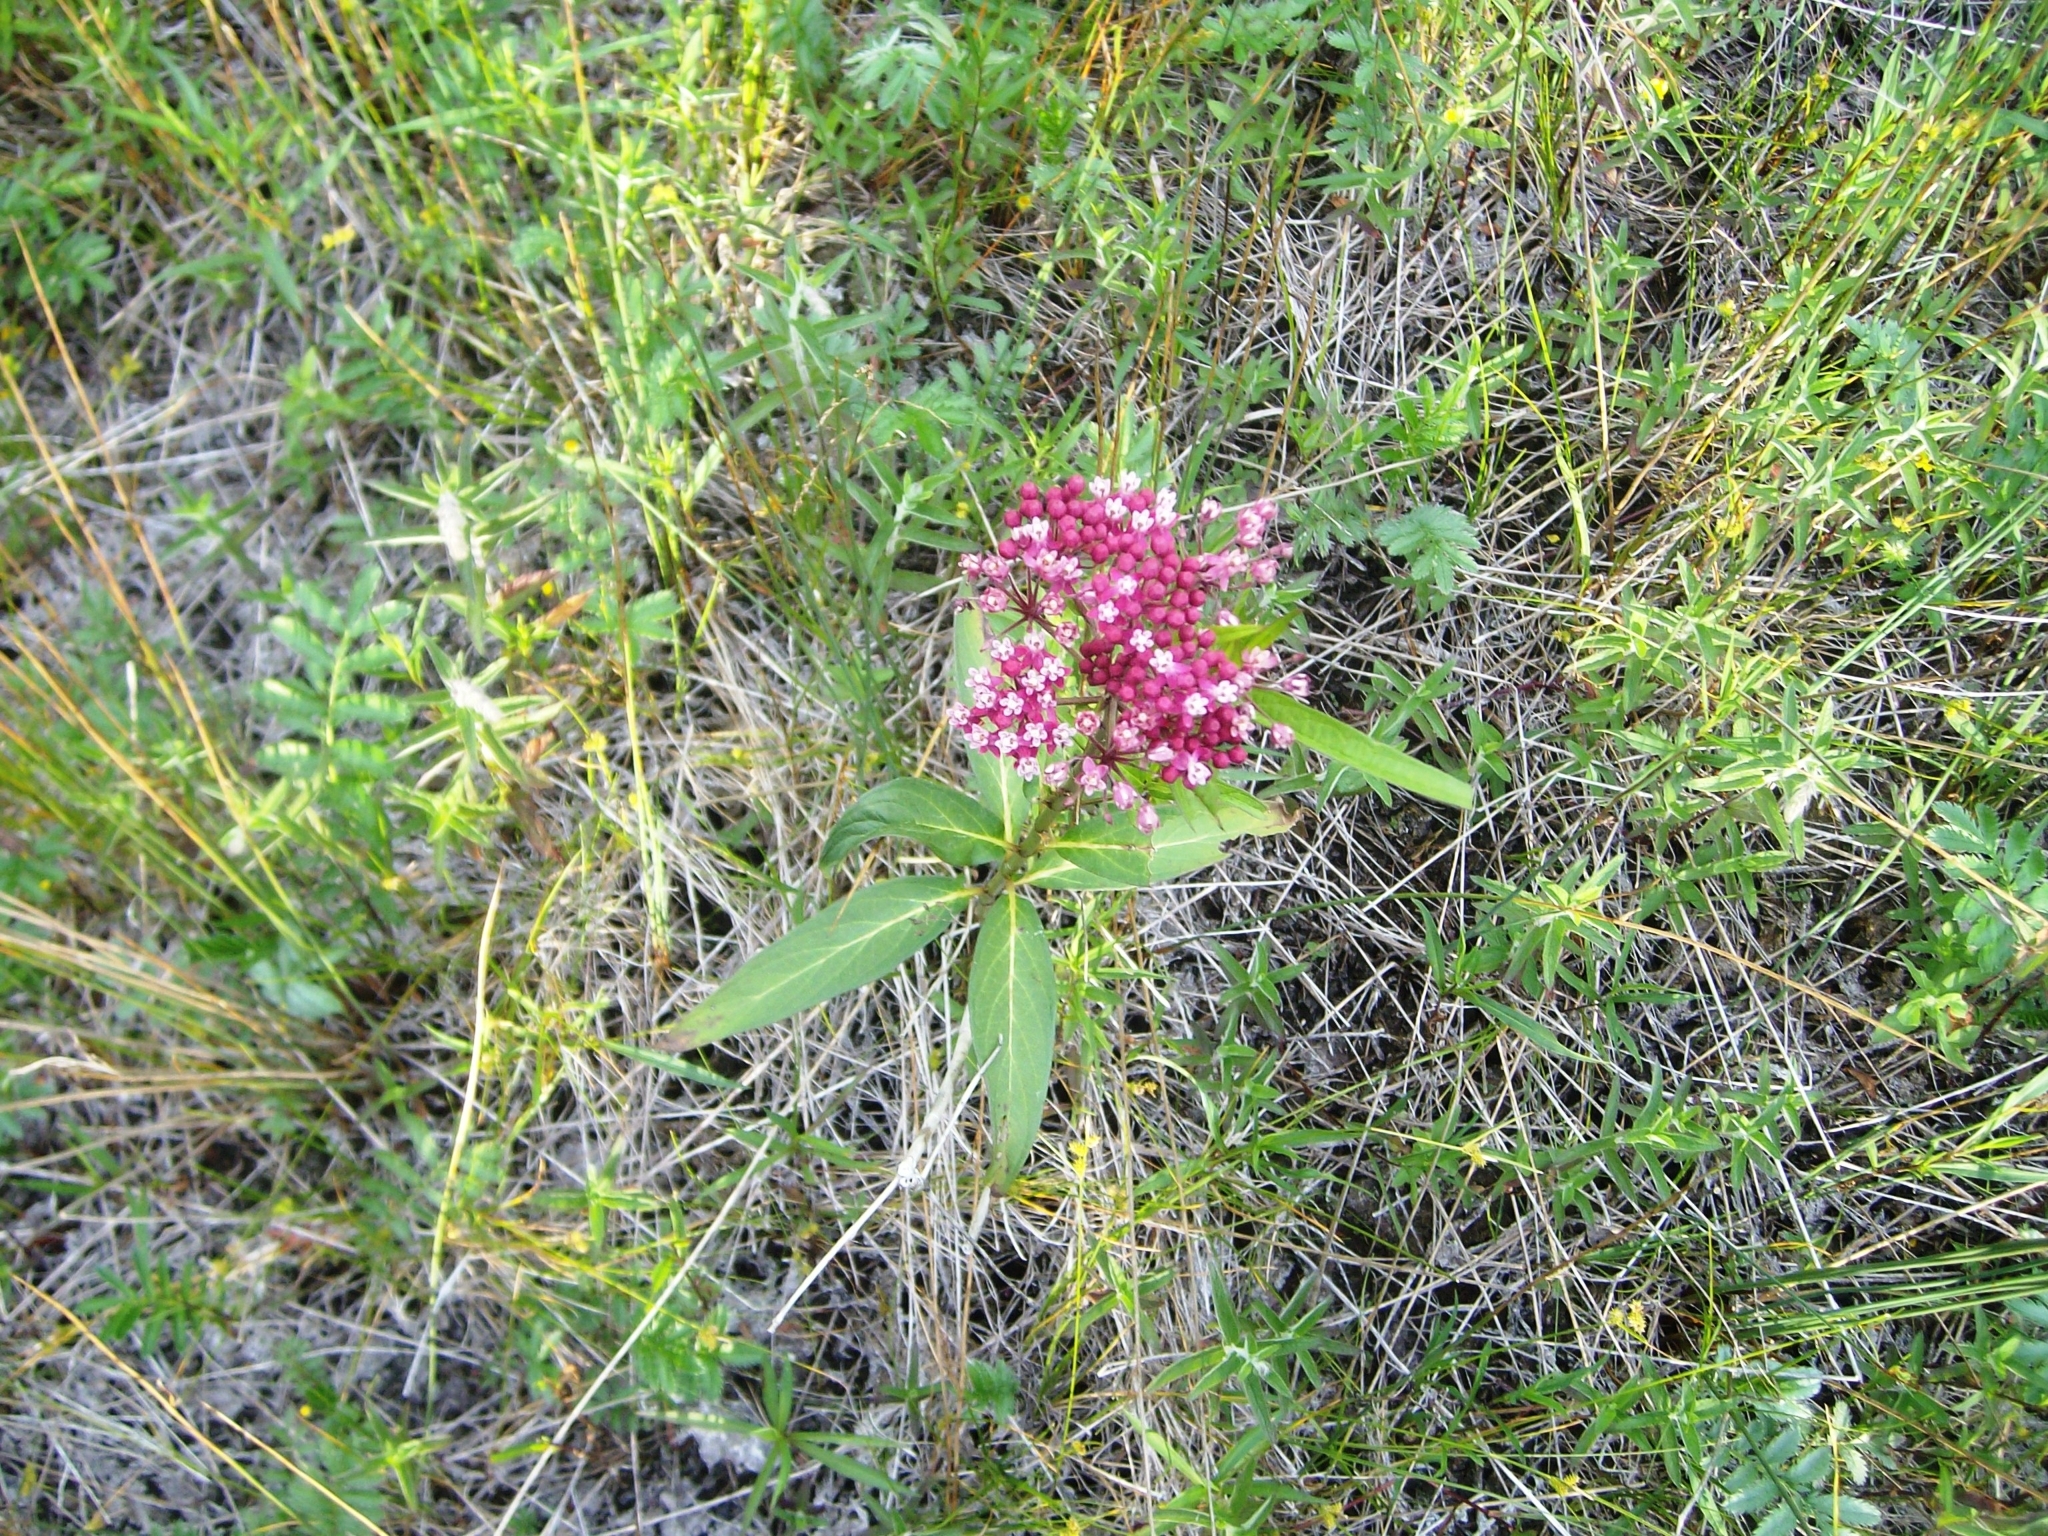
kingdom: Plantae
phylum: Tracheophyta
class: Magnoliopsida
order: Gentianales
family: Apocynaceae
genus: Asclepias
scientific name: Asclepias incarnata
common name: Swamp milkweed
